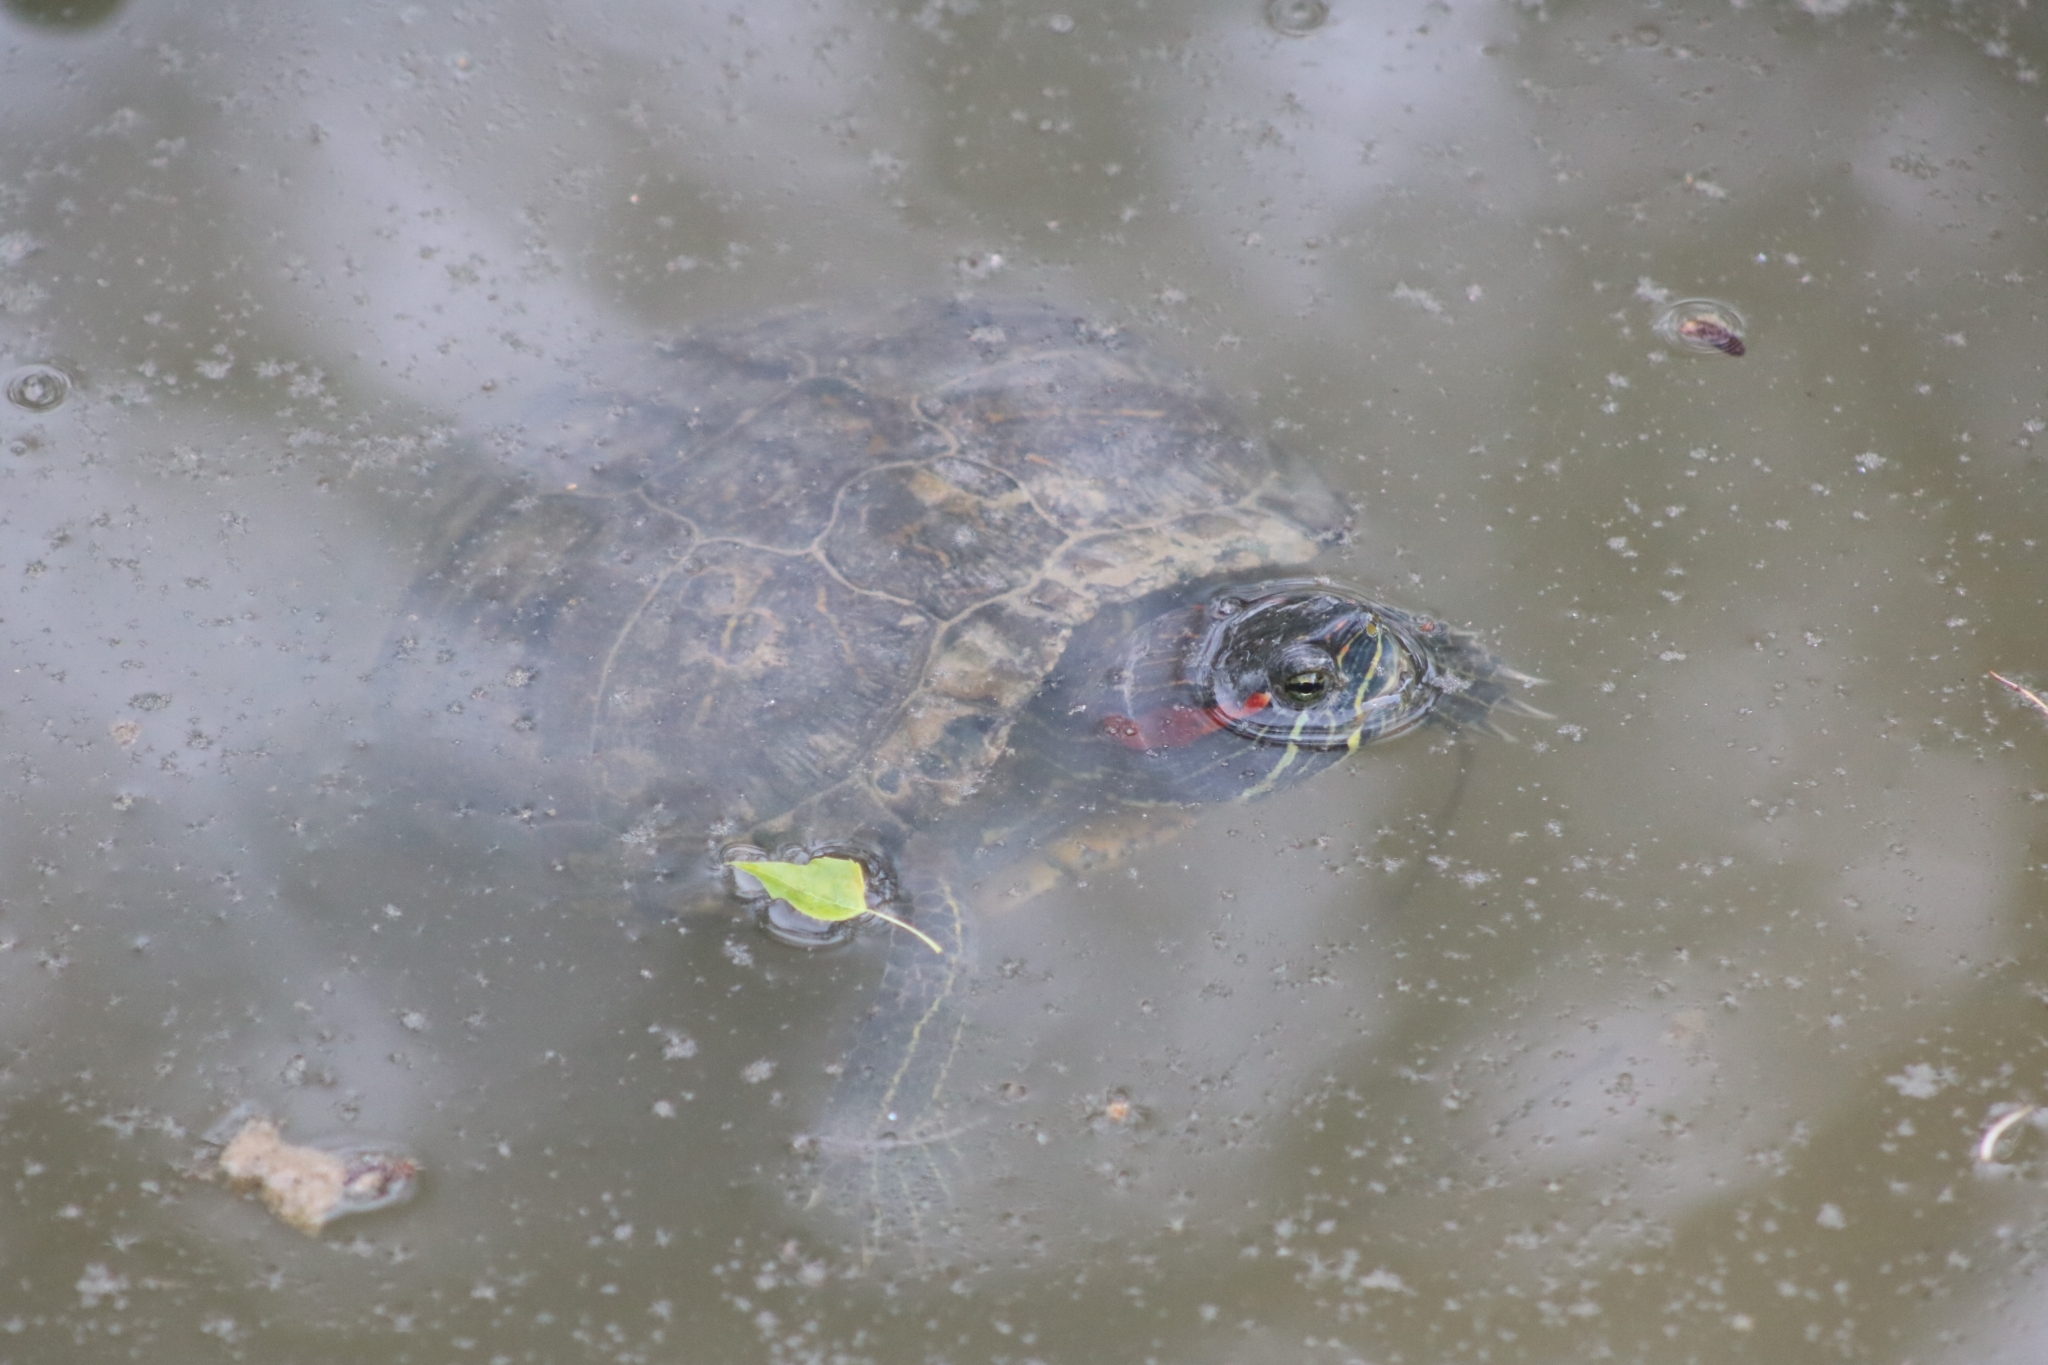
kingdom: Animalia
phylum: Chordata
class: Testudines
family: Emydidae
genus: Trachemys
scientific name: Trachemys scripta
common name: Slider
